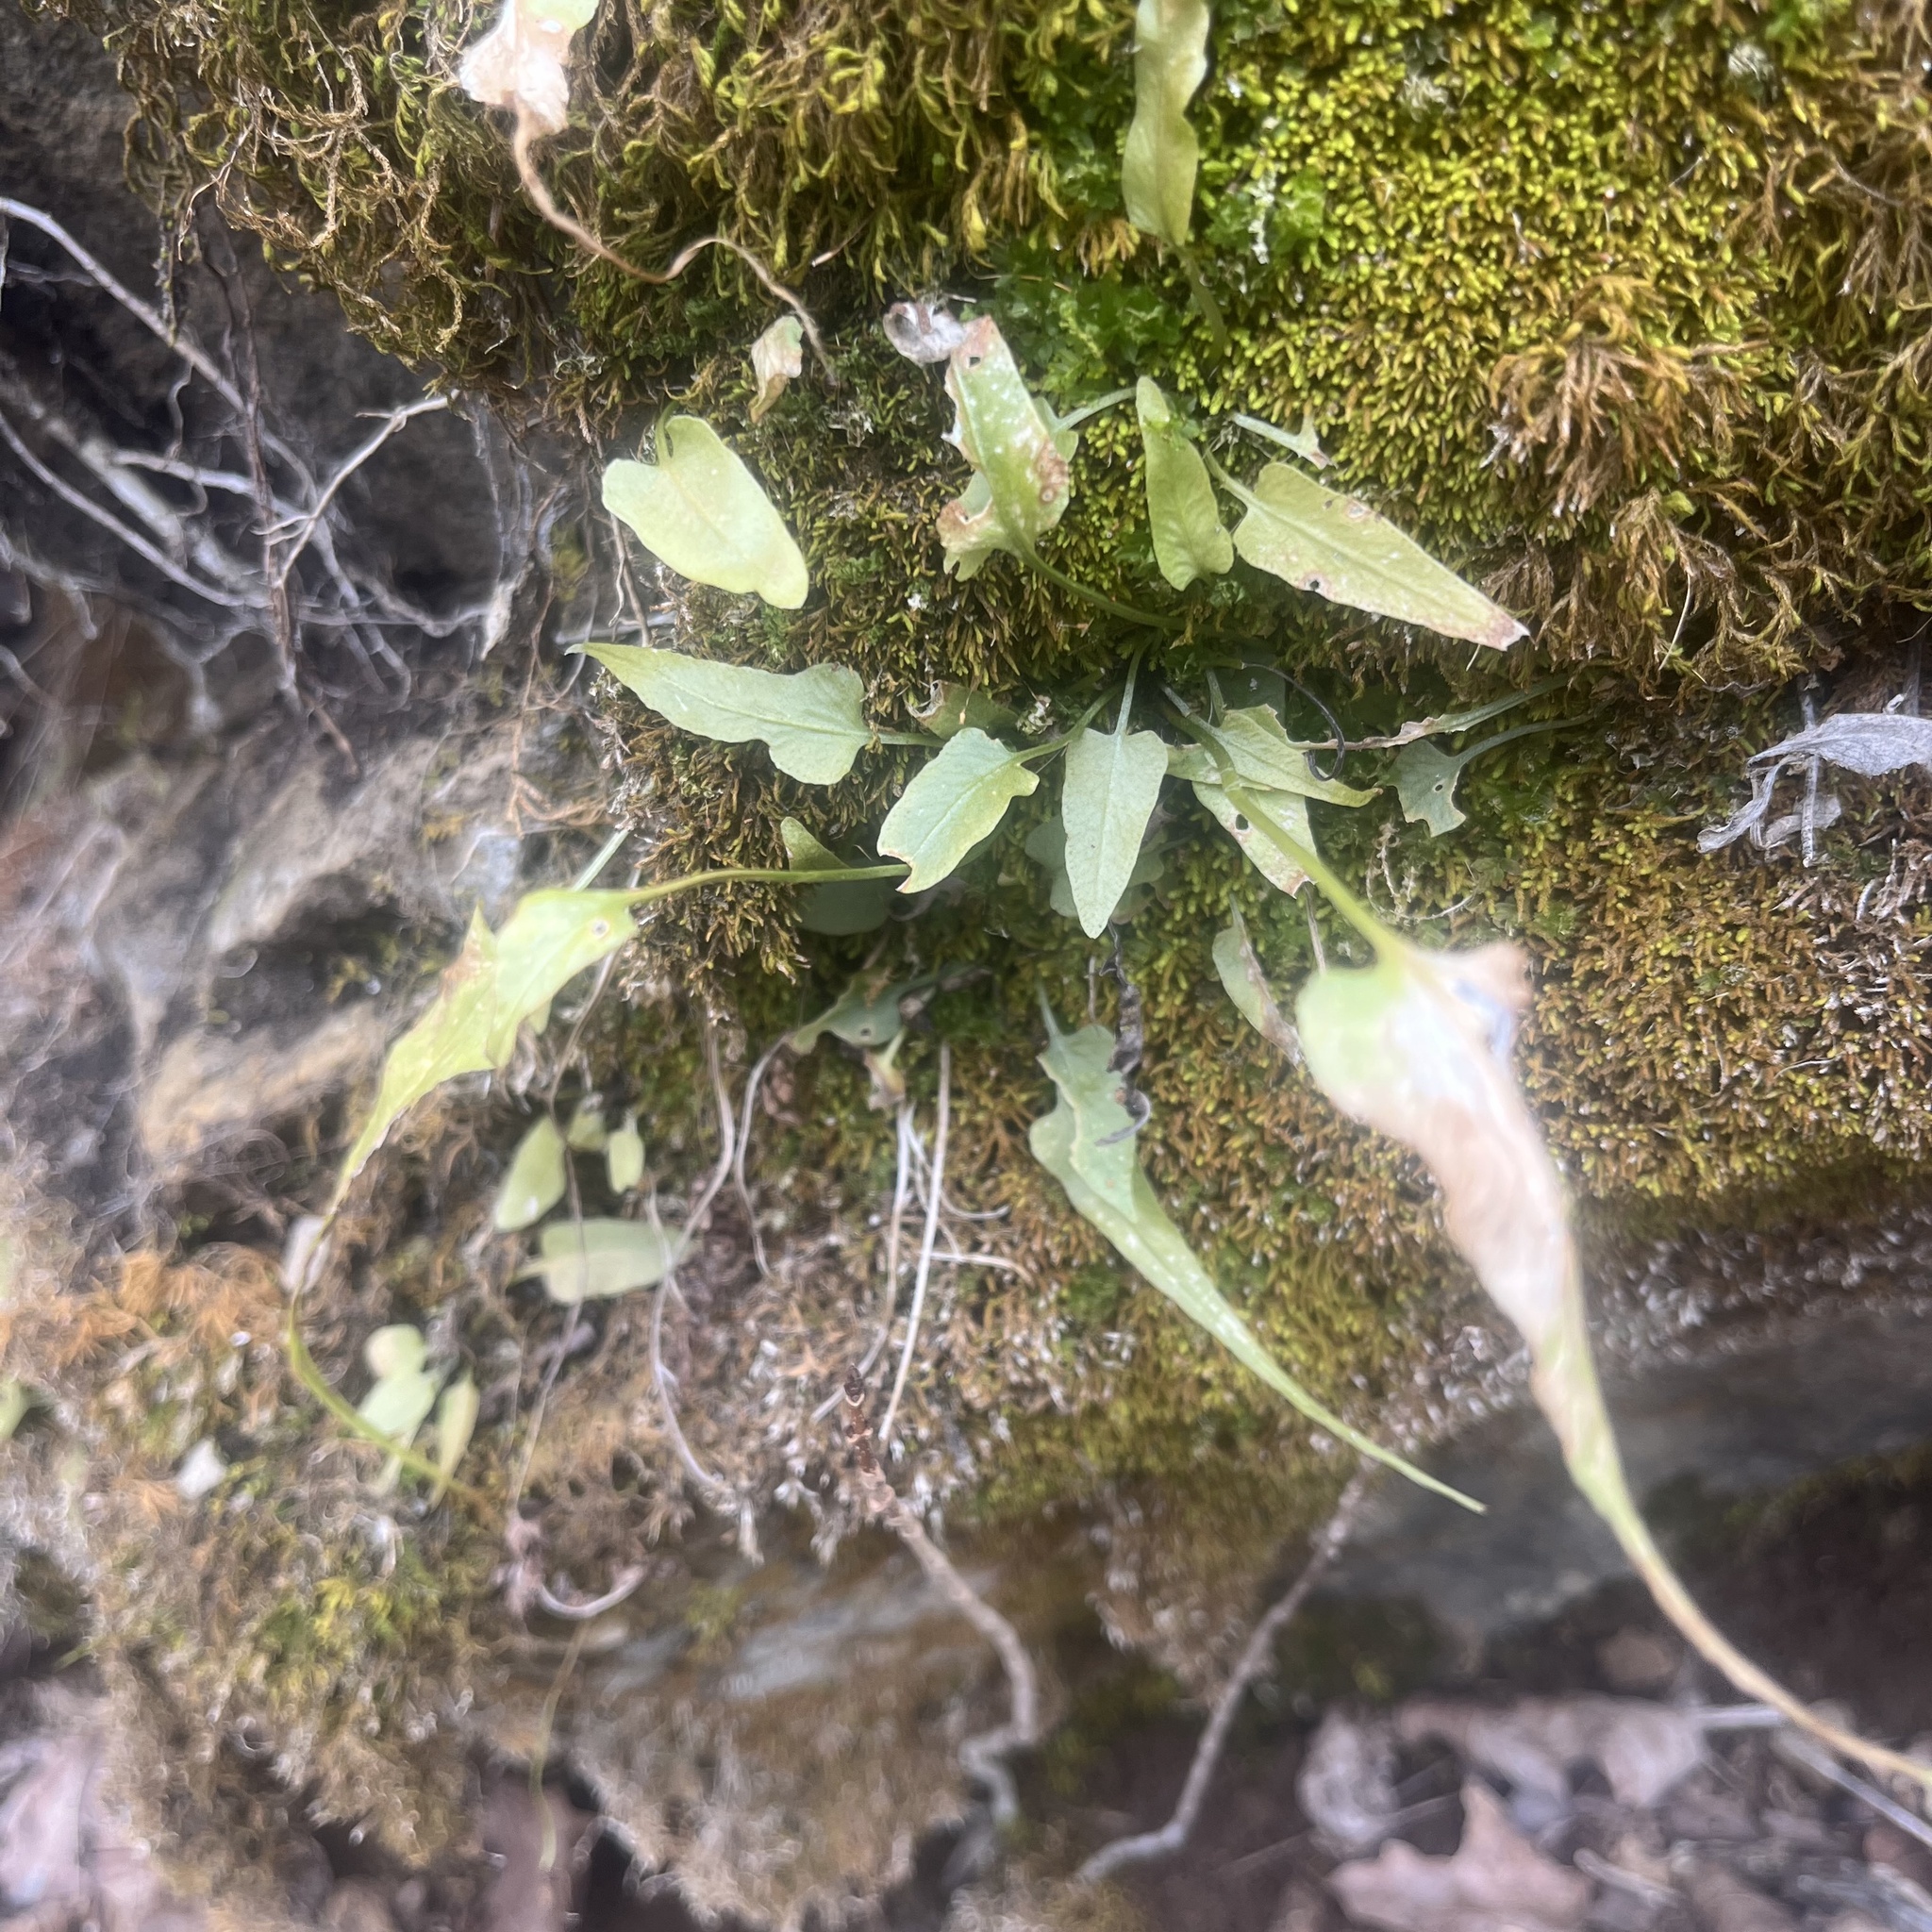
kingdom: Plantae
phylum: Tracheophyta
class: Polypodiopsida
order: Polypodiales
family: Aspleniaceae
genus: Asplenium
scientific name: Asplenium rhizophyllum
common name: Walking fern
